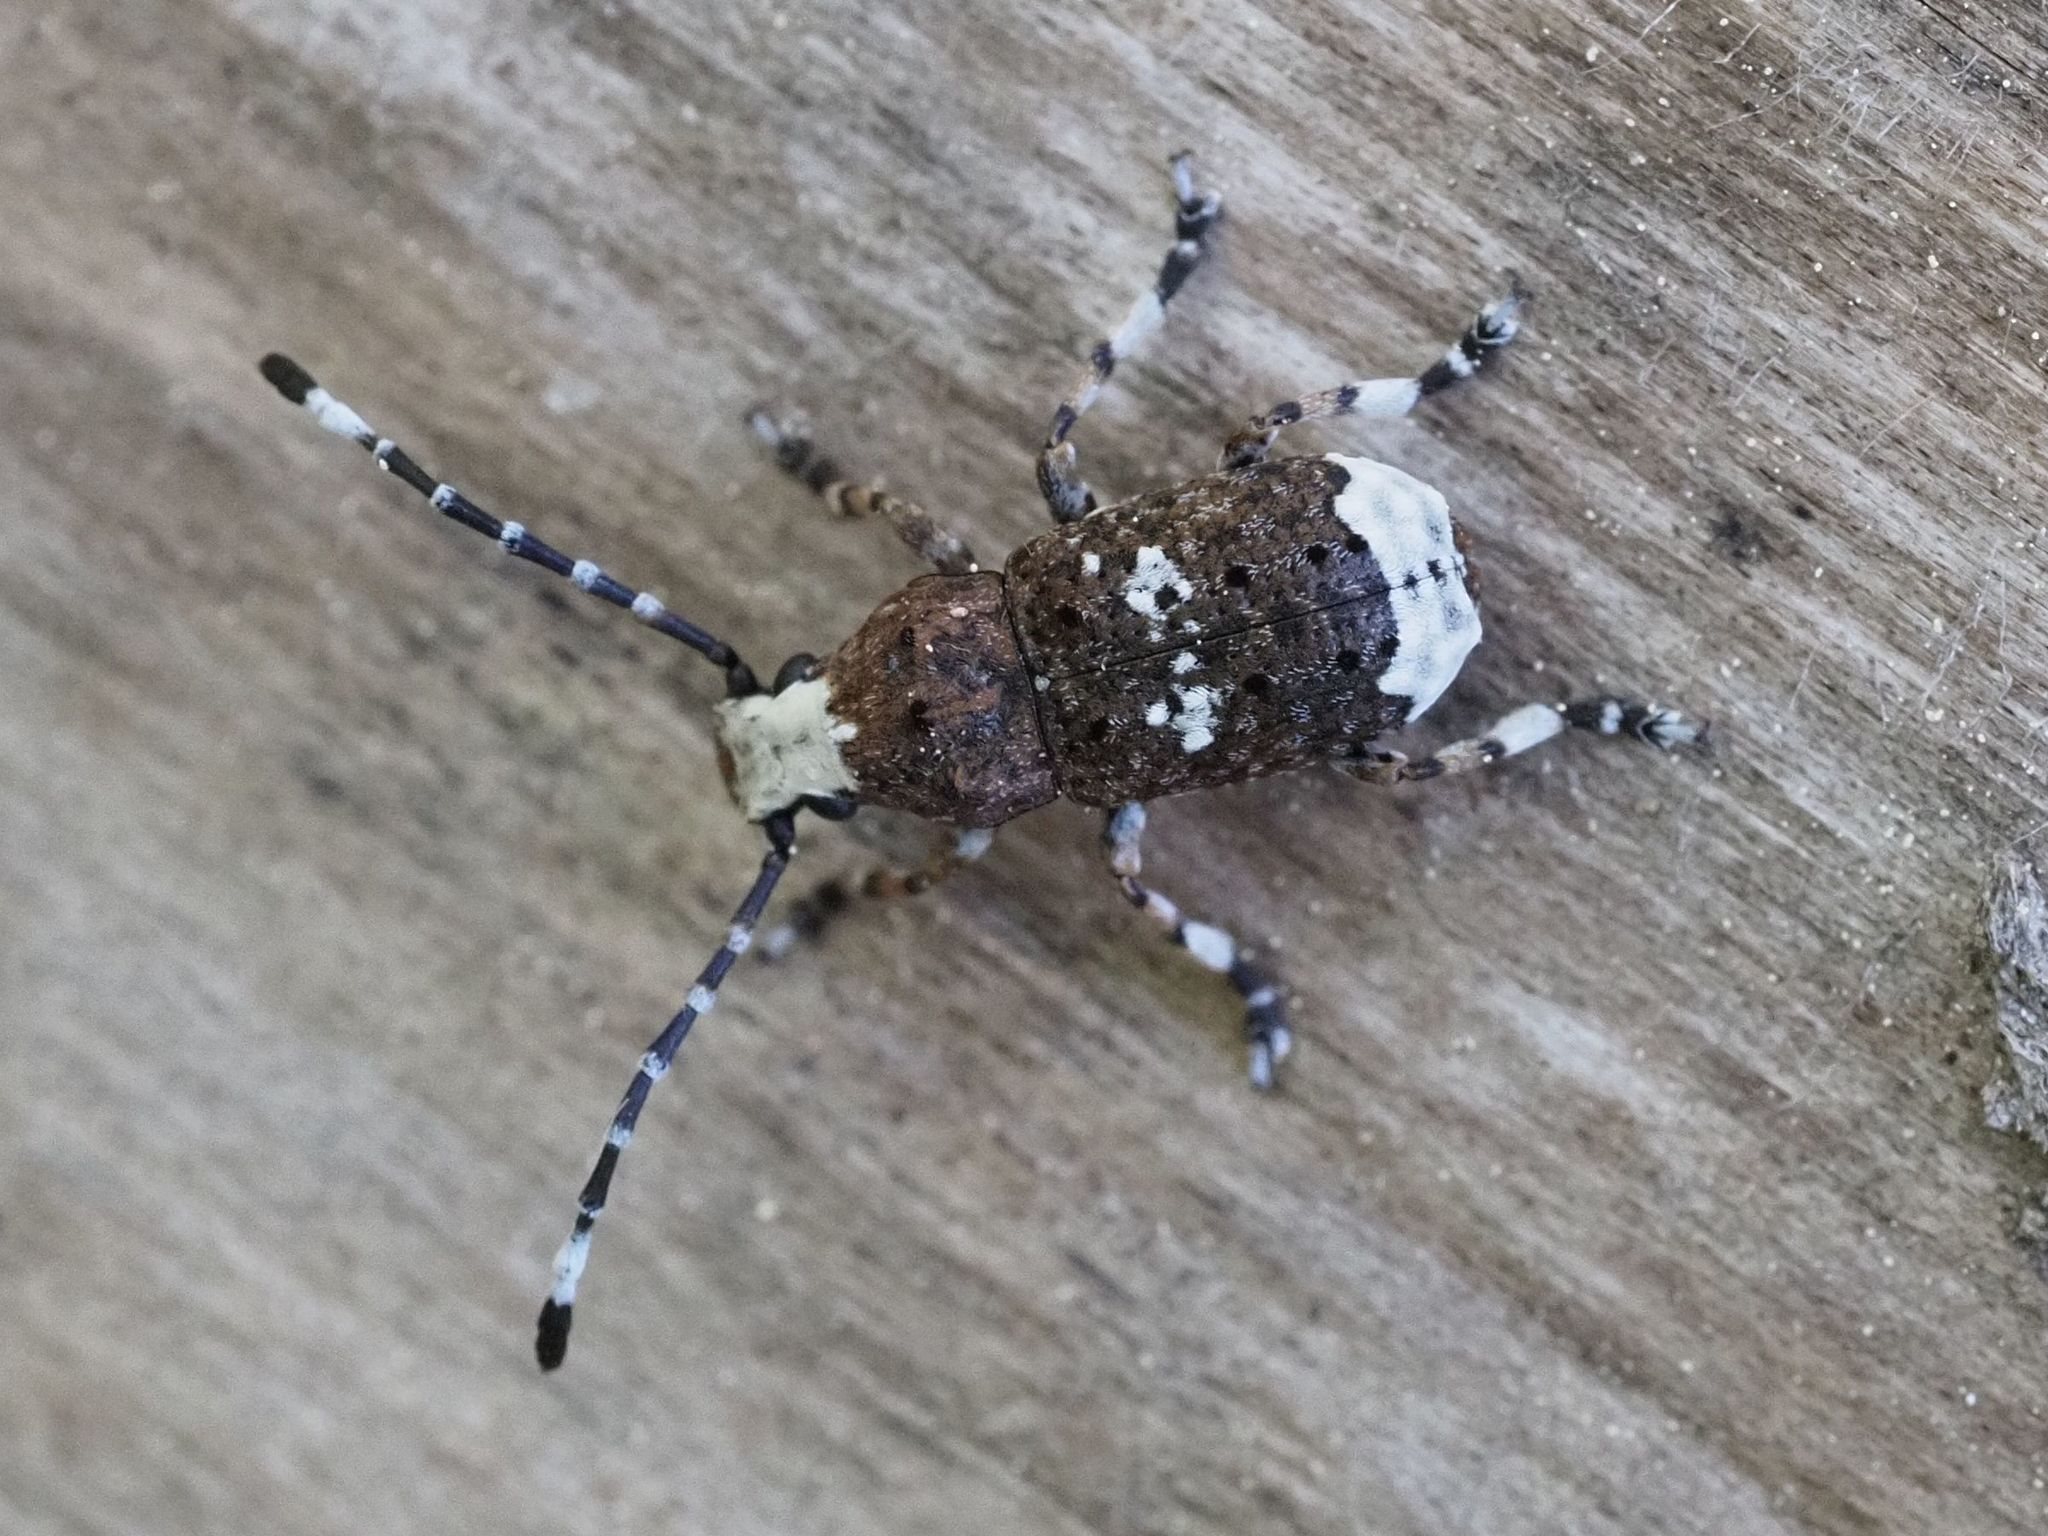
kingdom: Animalia
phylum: Arthropoda
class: Insecta
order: Coleoptera
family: Anthribidae
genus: Platystomos
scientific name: Platystomos albinus
